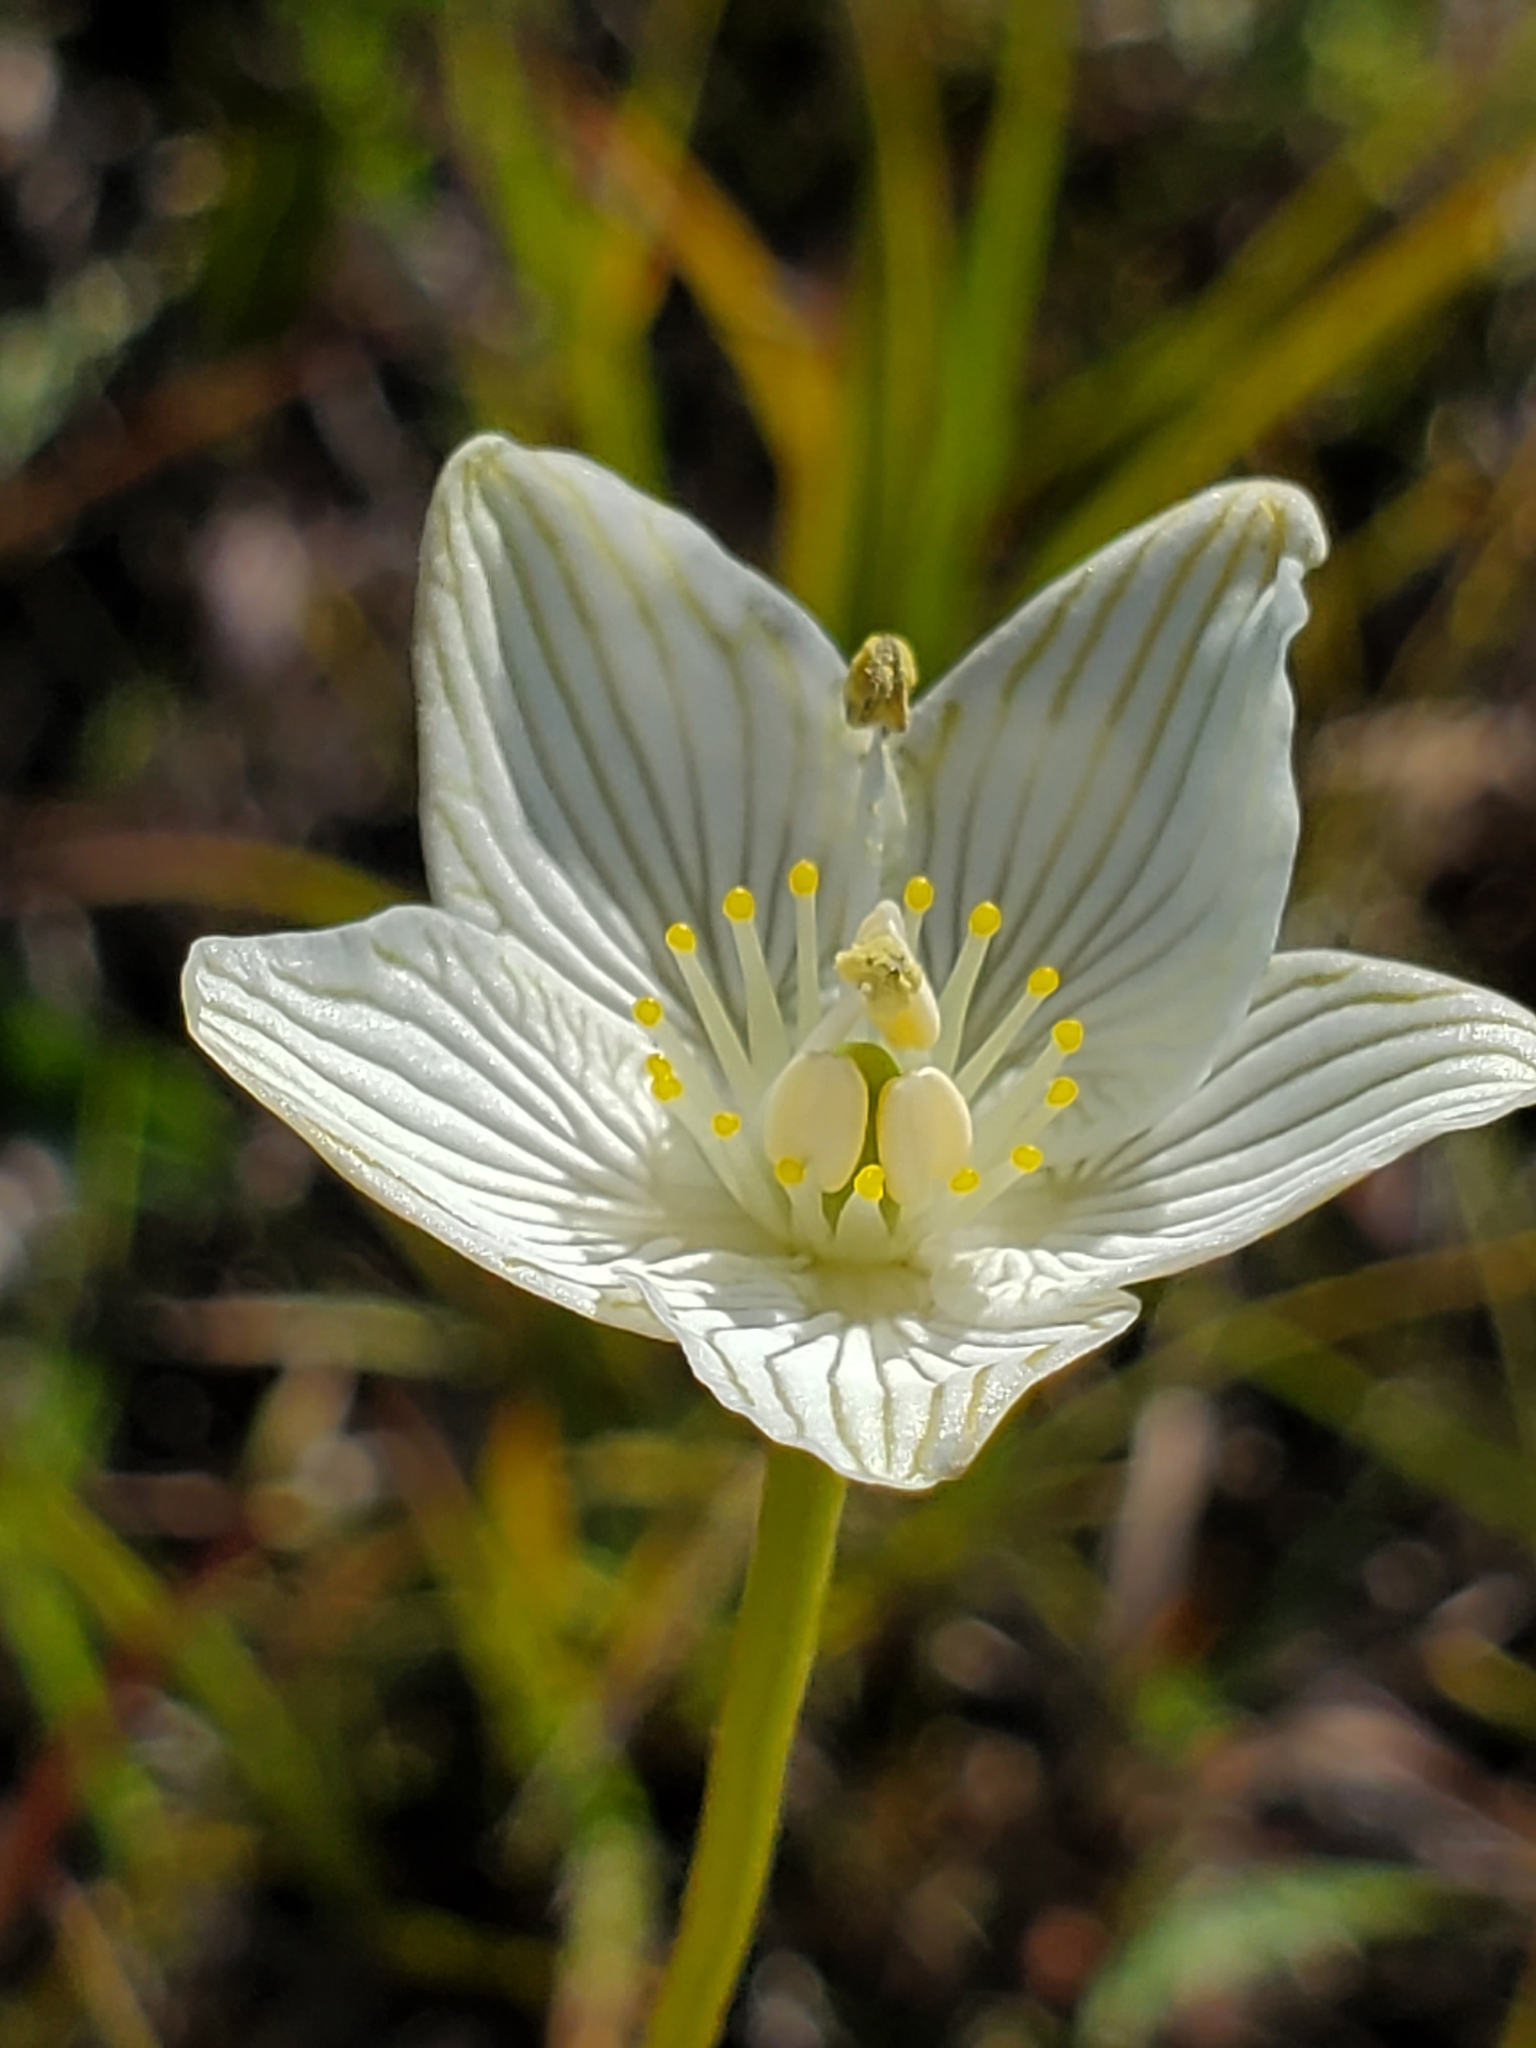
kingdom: Plantae
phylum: Tracheophyta
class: Magnoliopsida
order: Celastrales
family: Parnassiaceae
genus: Parnassia
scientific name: Parnassia glauca
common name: American grass-of-parnassus
